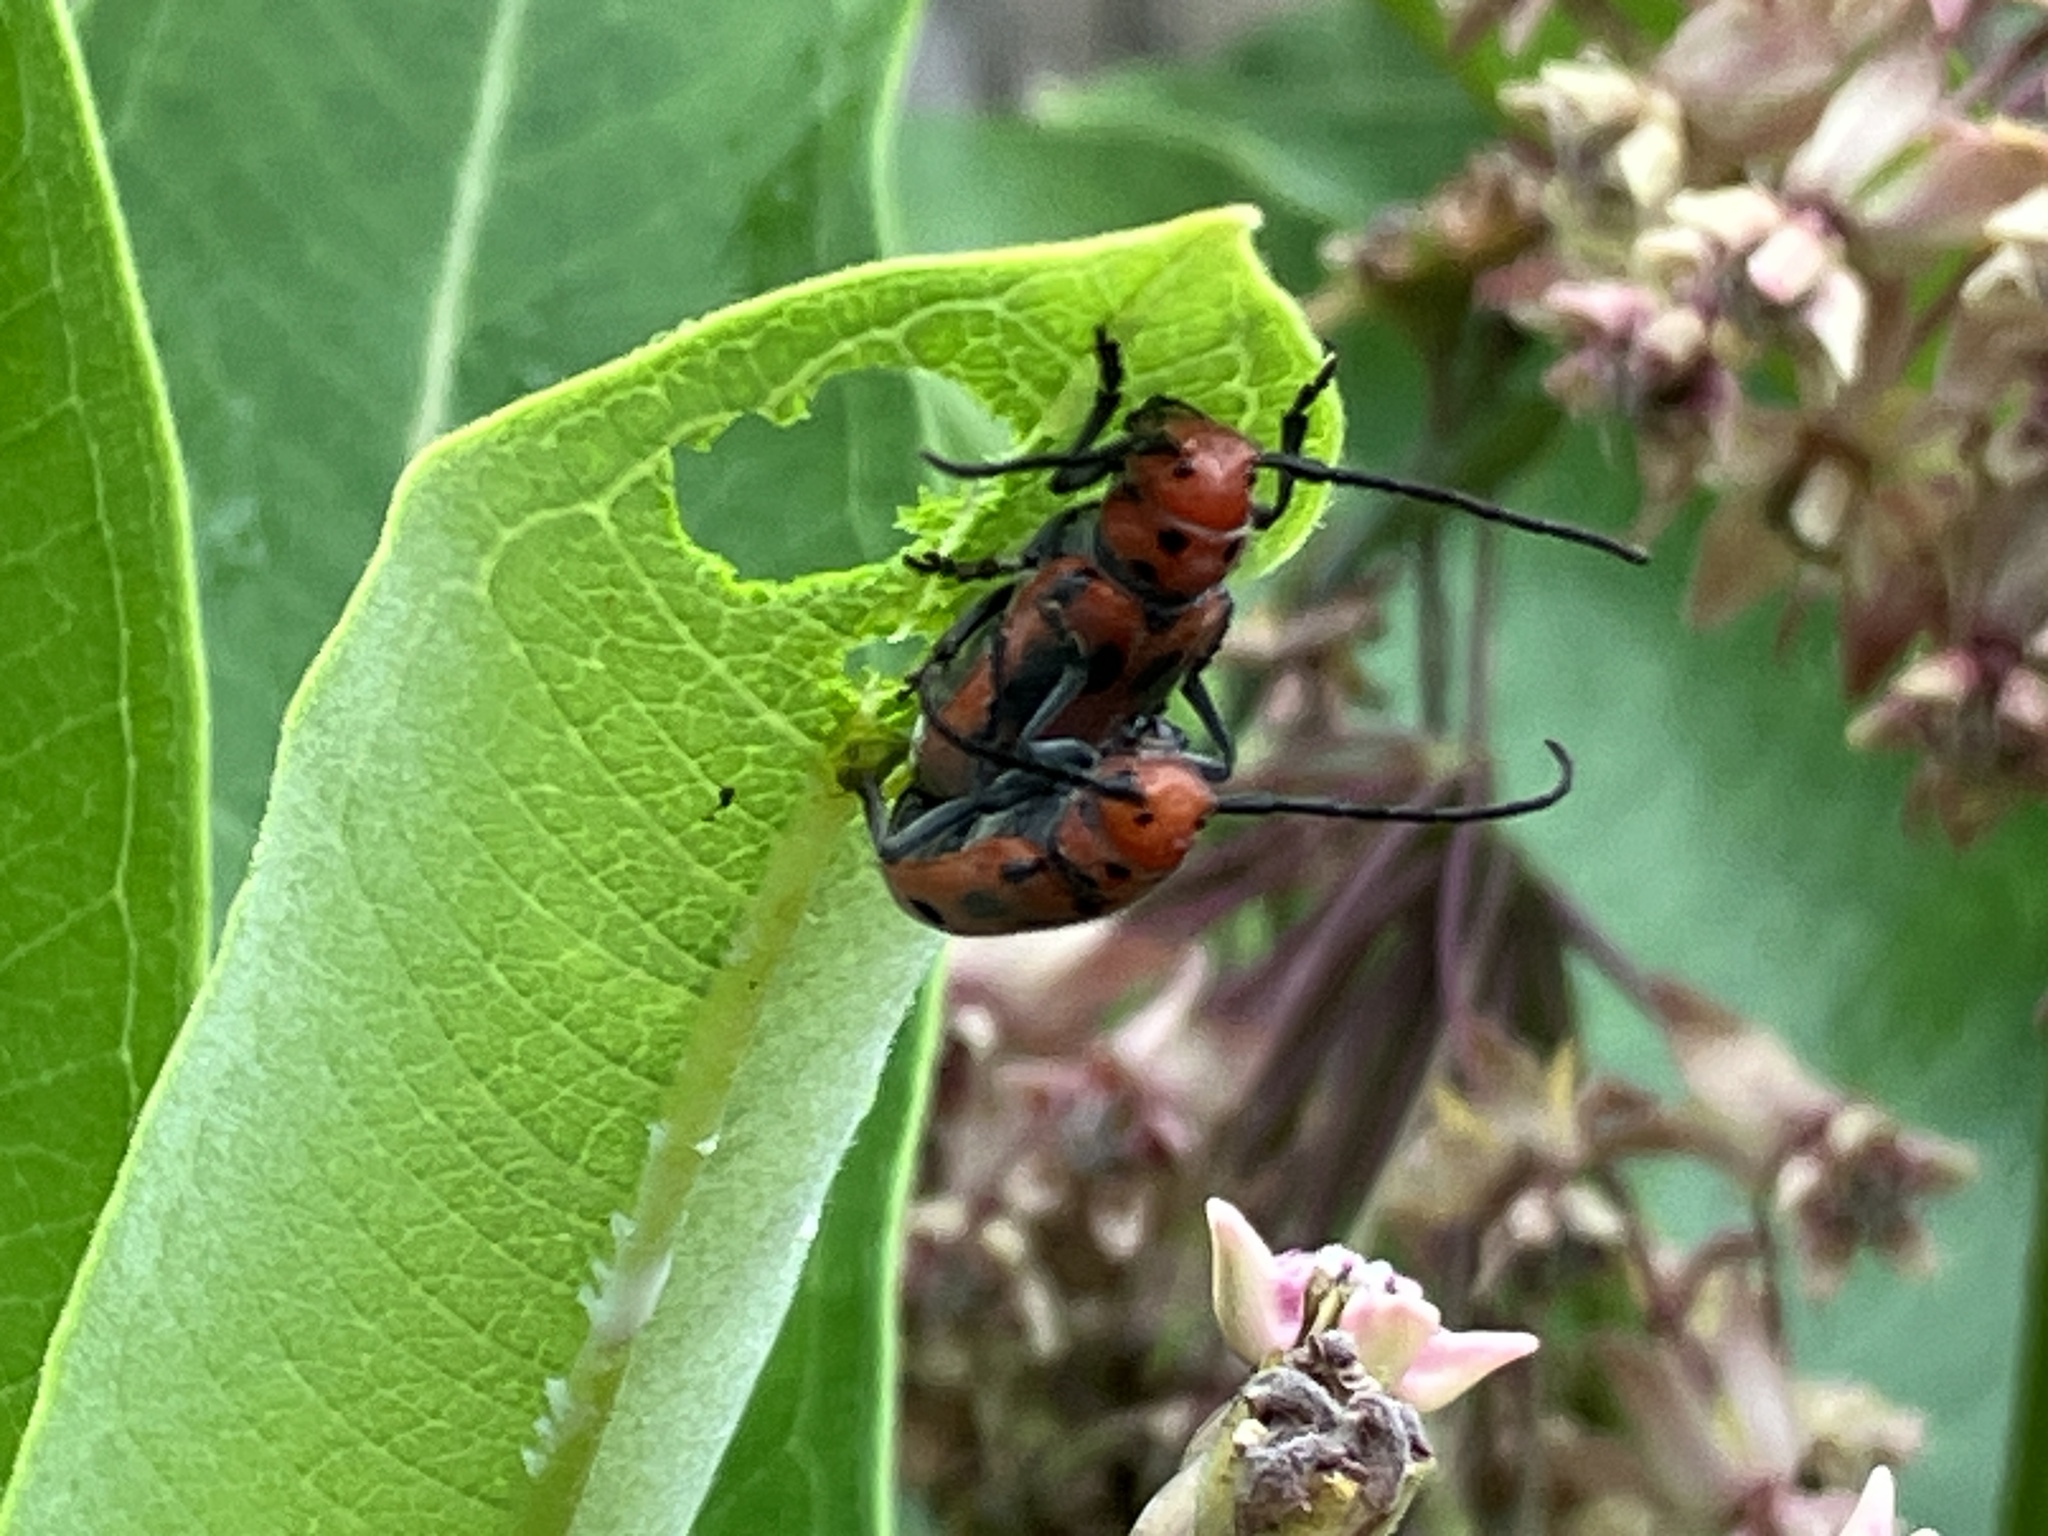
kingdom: Animalia
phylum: Arthropoda
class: Insecta
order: Coleoptera
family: Cerambycidae
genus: Tetraopes
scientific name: Tetraopes tetrophthalmus
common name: Red milkweed beetle
